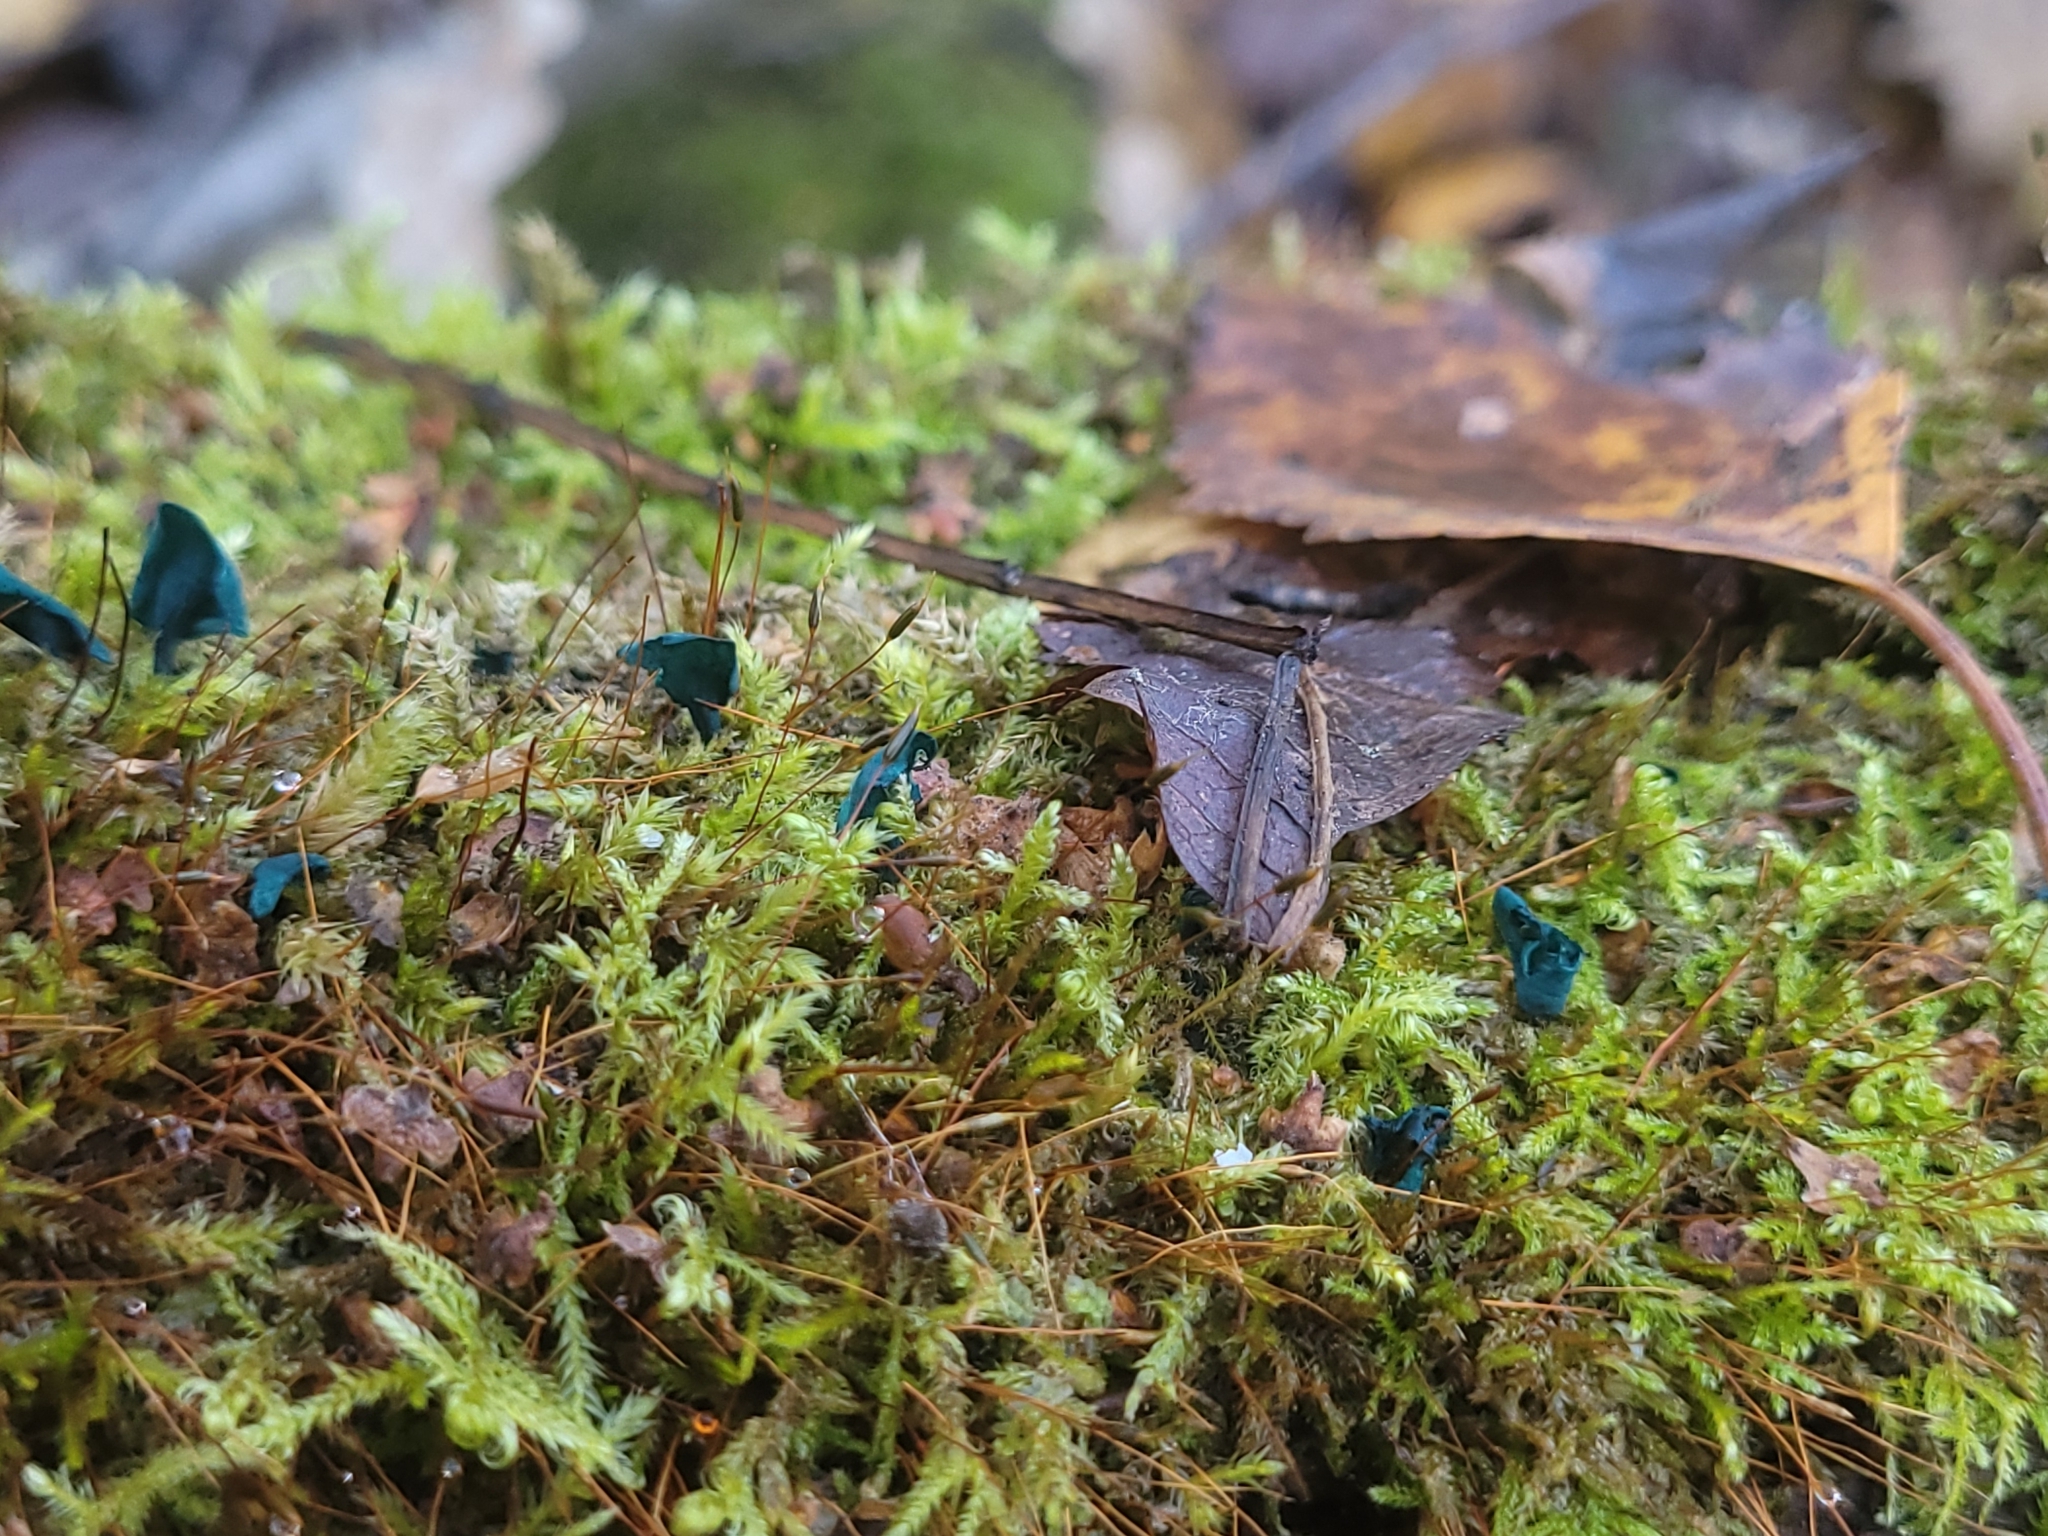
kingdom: Fungi
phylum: Ascomycota
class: Leotiomycetes
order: Helotiales
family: Chlorociboriaceae
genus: Chlorociboria
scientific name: Chlorociboria aeruginascens
